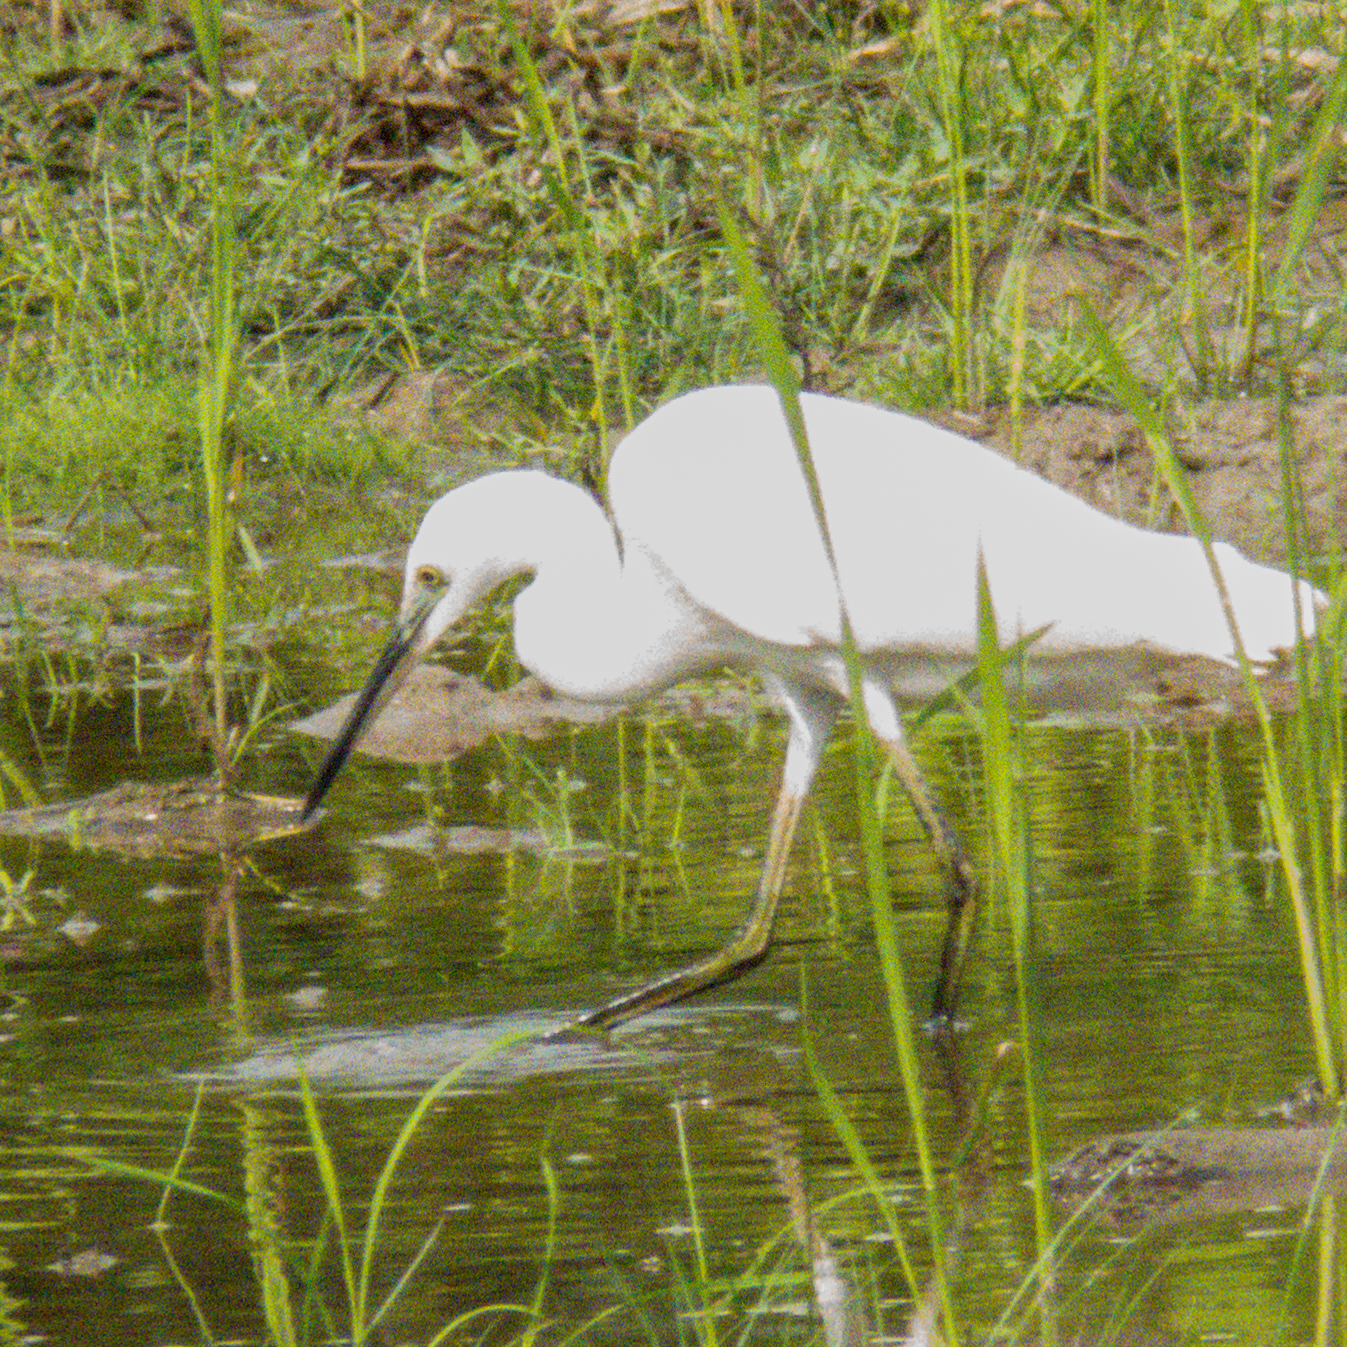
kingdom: Animalia
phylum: Chordata
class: Aves
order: Pelecaniformes
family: Ardeidae
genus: Egretta
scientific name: Egretta garzetta
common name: Little egret
